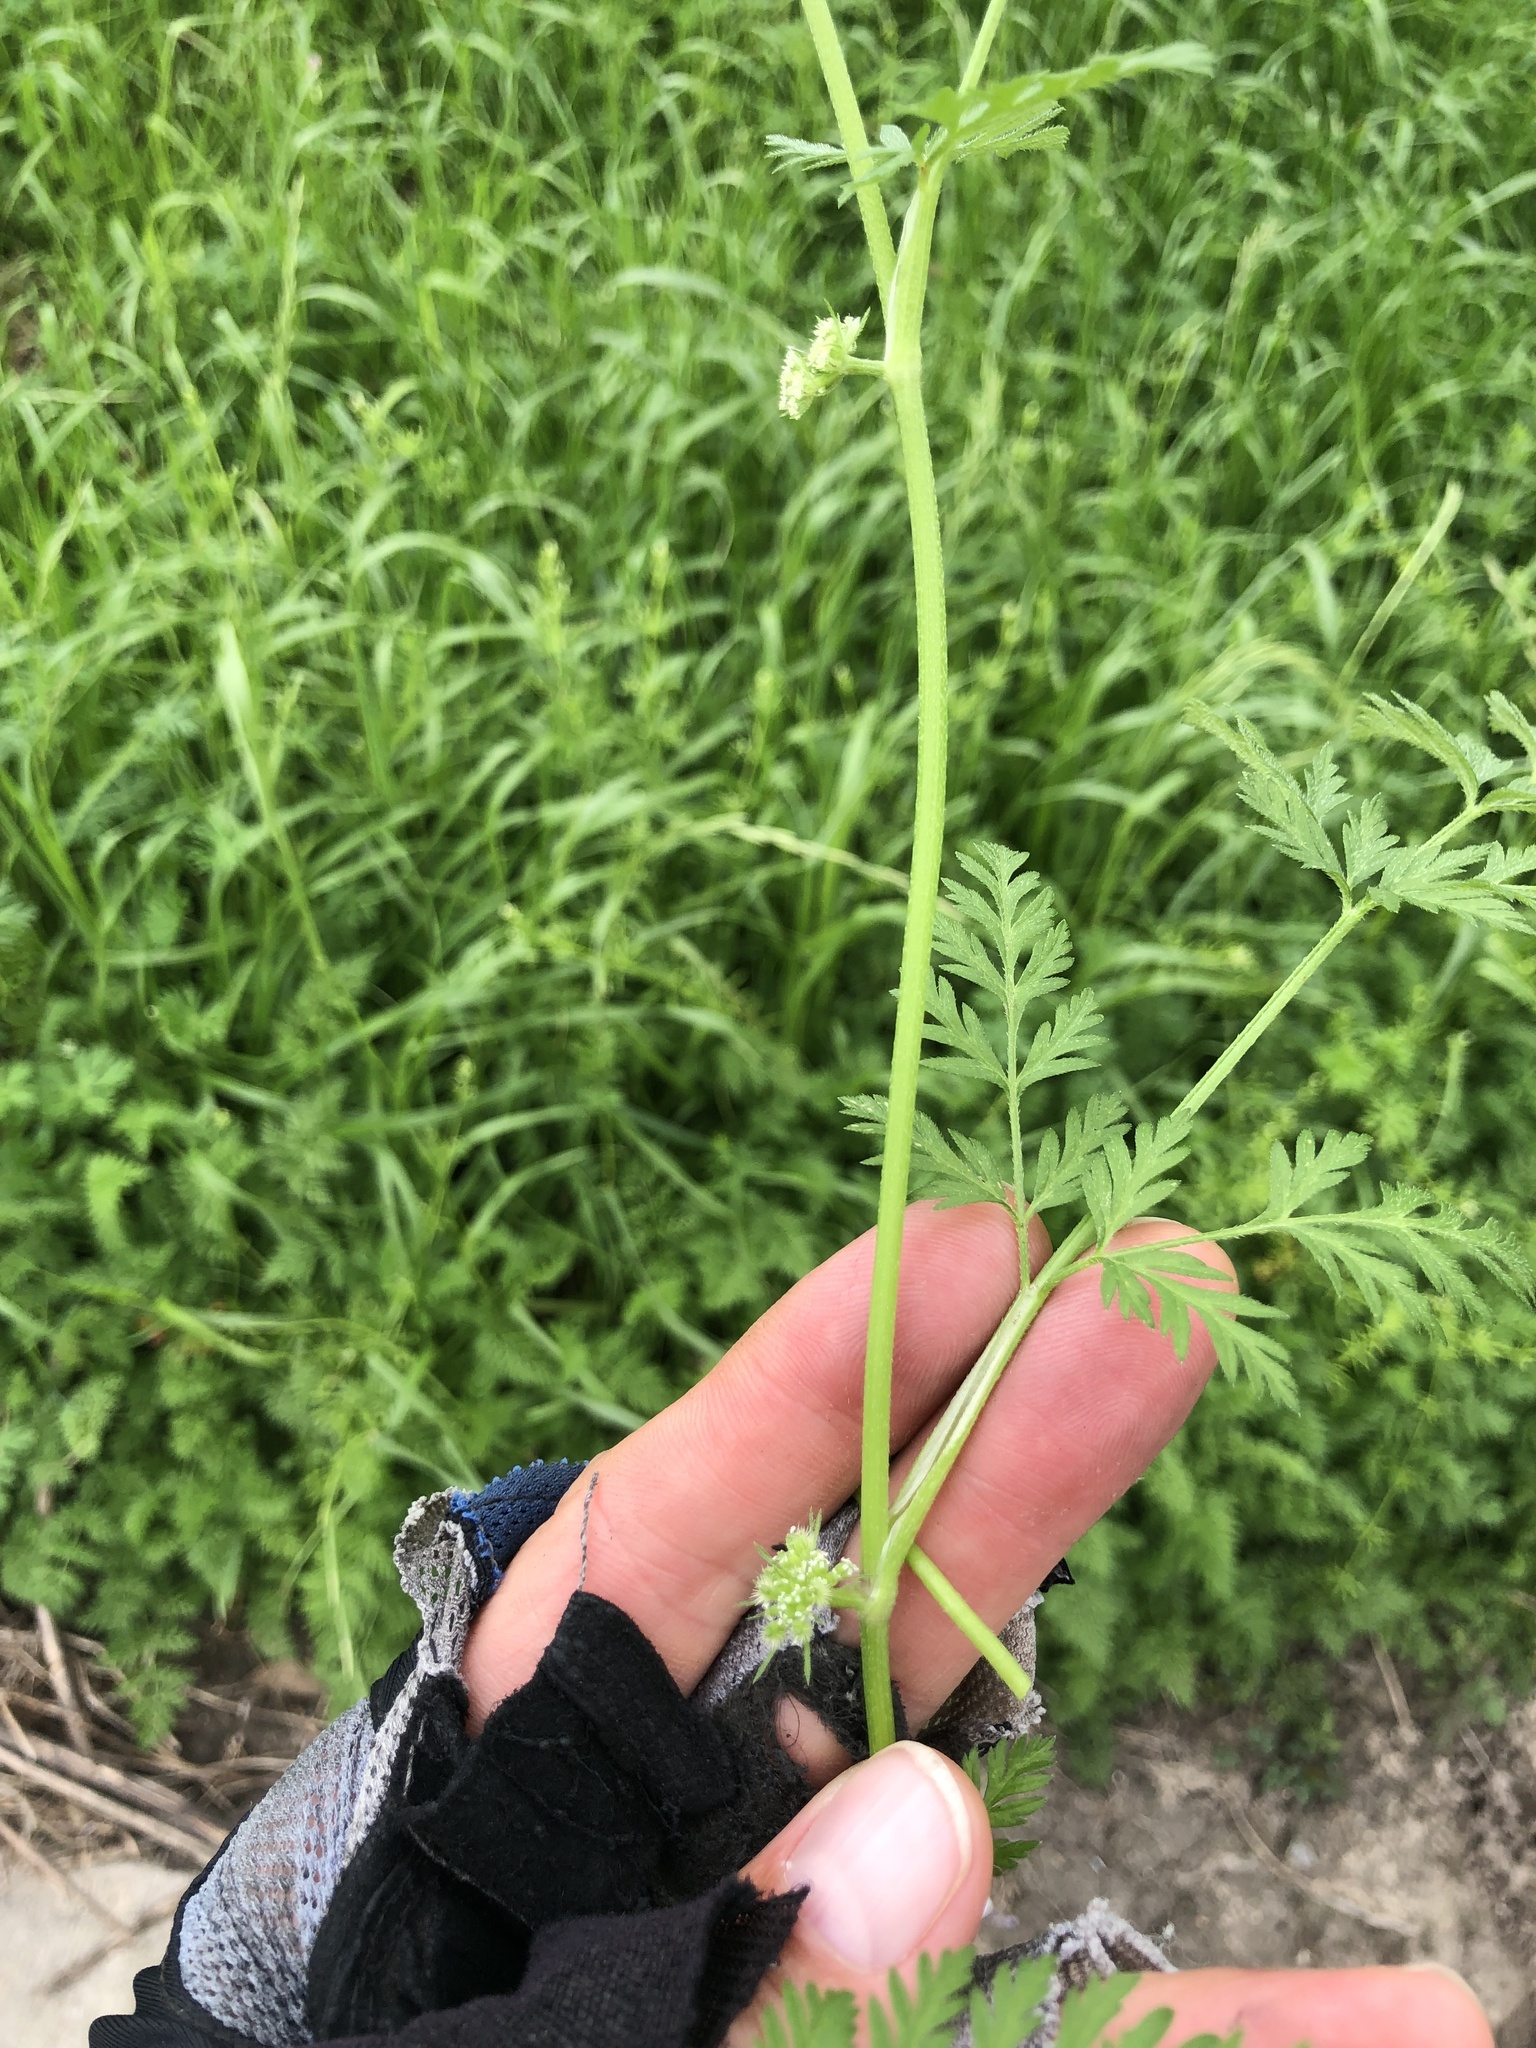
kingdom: Plantae
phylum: Tracheophyta
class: Magnoliopsida
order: Apiales
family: Apiaceae
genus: Torilis
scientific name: Torilis nodosa
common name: Knotted hedge-parsley
